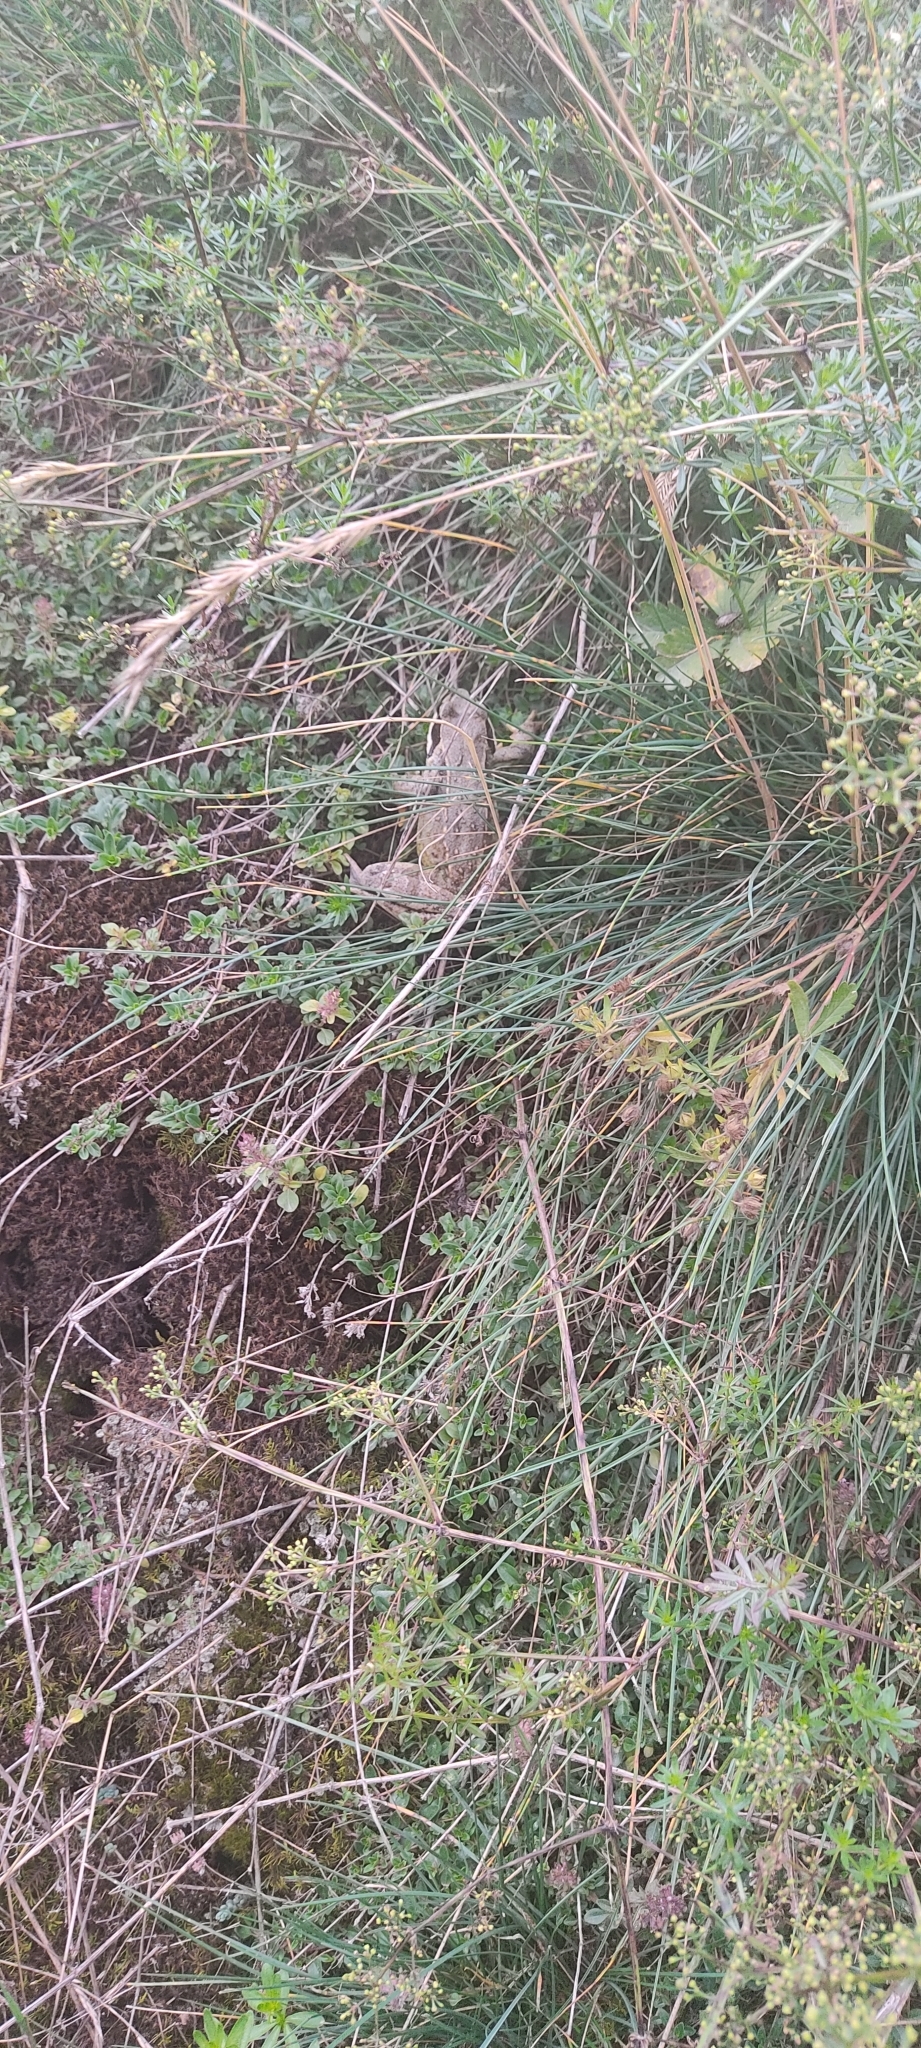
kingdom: Animalia
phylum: Chordata
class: Amphibia
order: Anura
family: Ranidae
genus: Rana
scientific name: Rana temporaria
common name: Common frog
